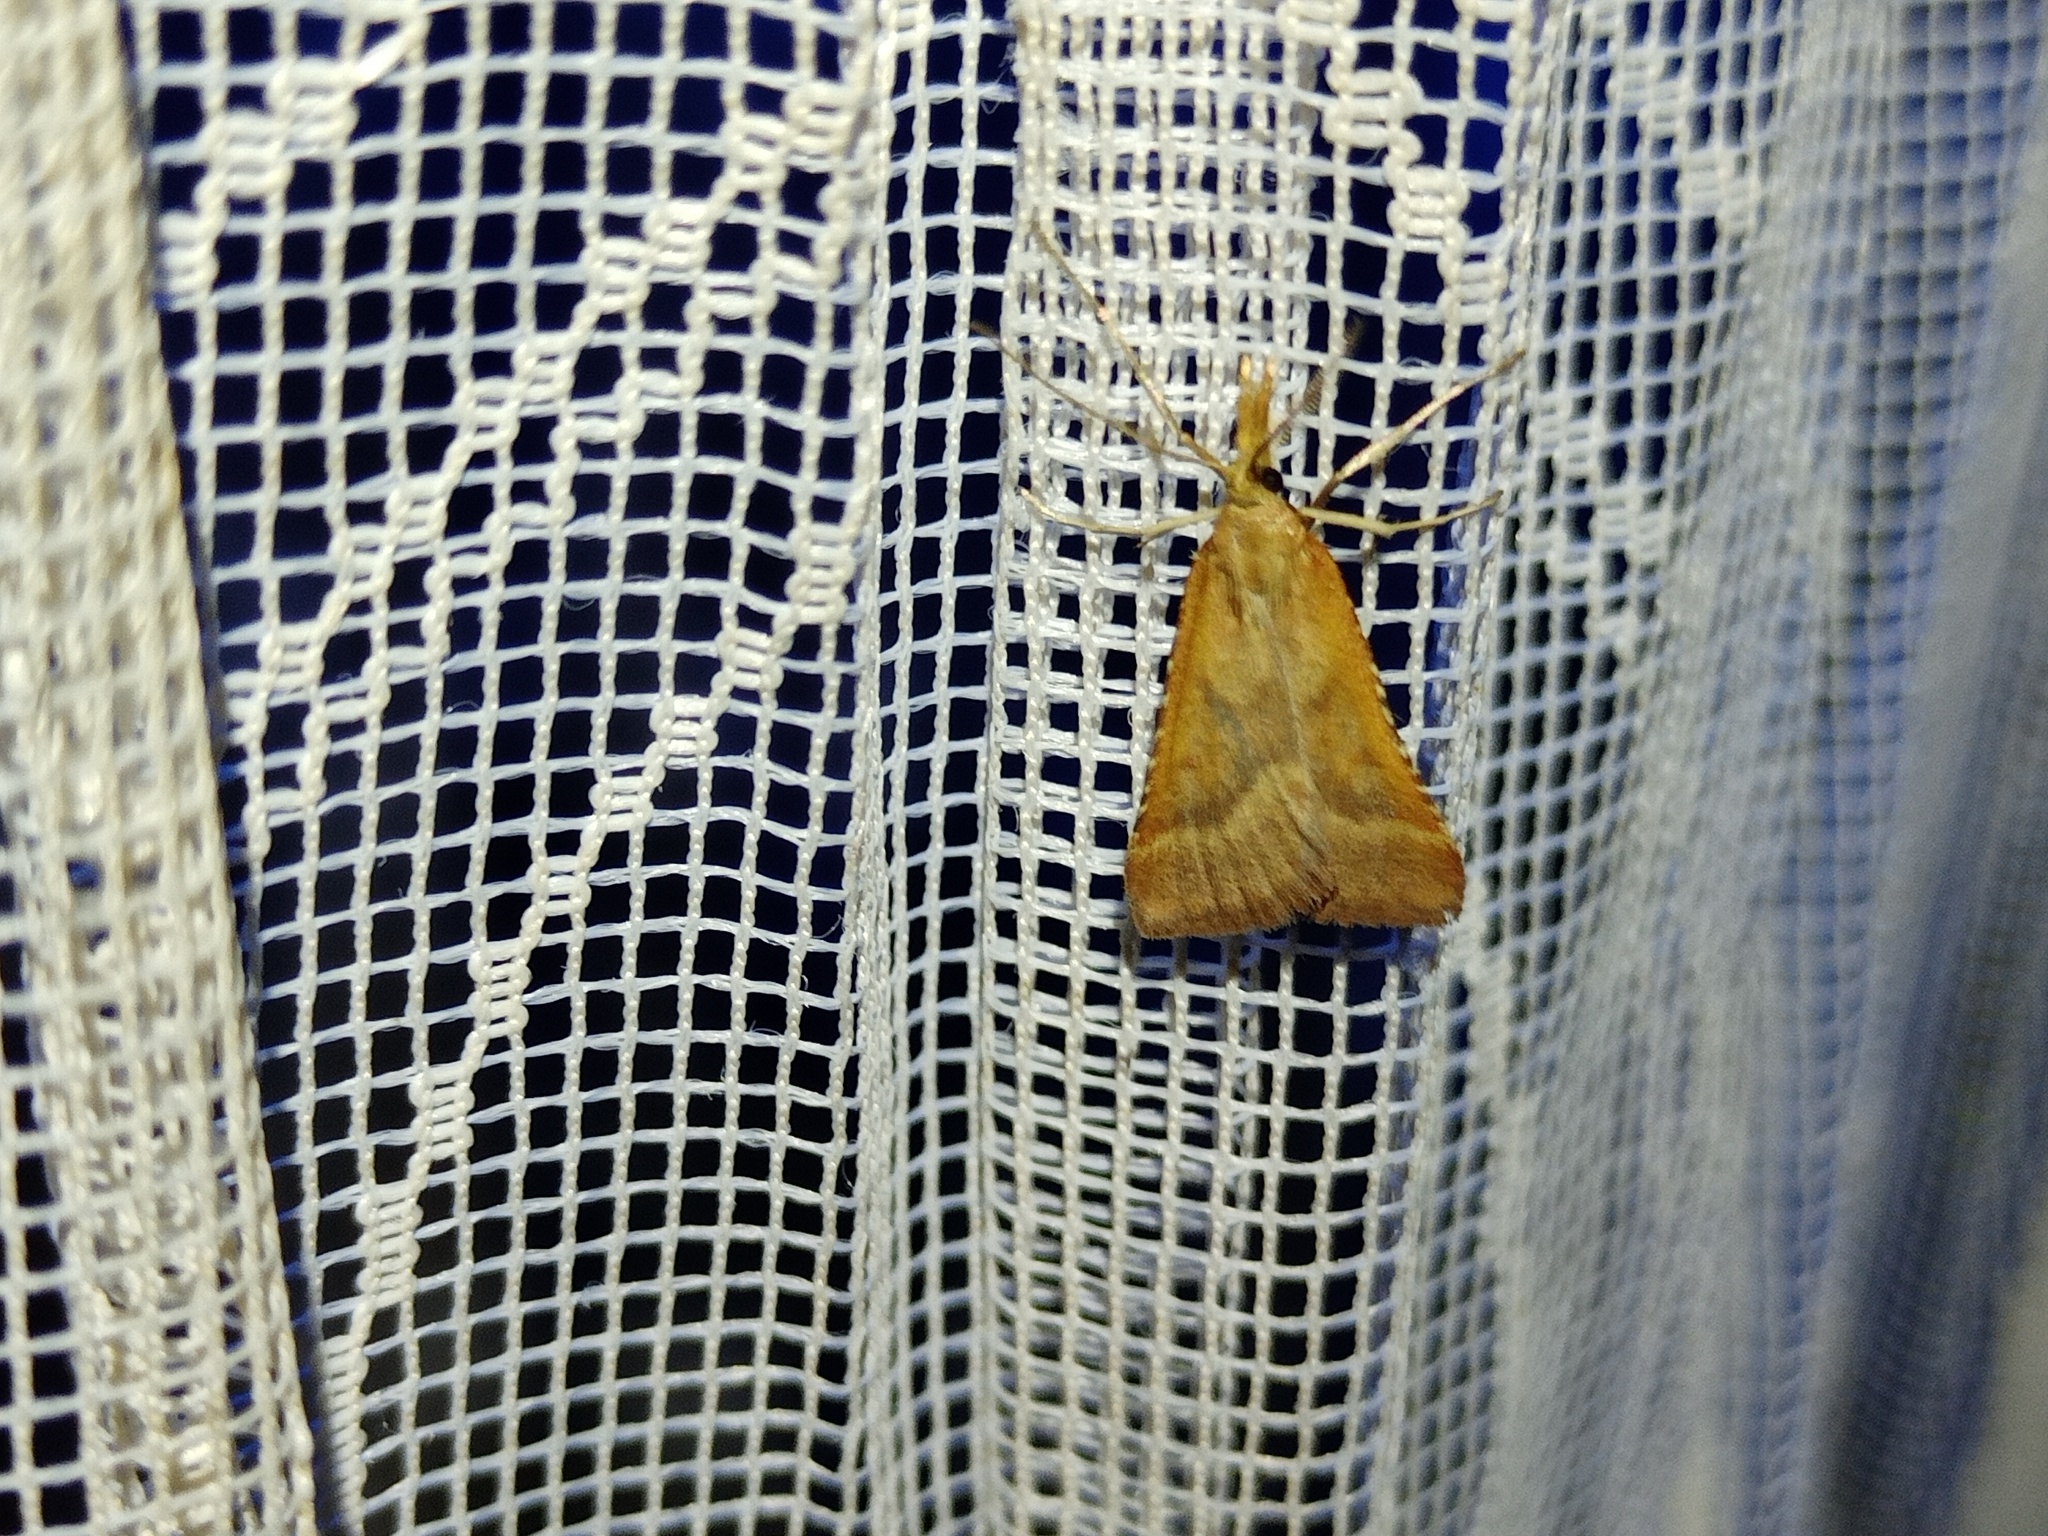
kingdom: Animalia
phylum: Arthropoda
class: Insecta
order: Lepidoptera
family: Pyralidae
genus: Synaphe
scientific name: Synaphe punctalis
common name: Long-legged tabby
